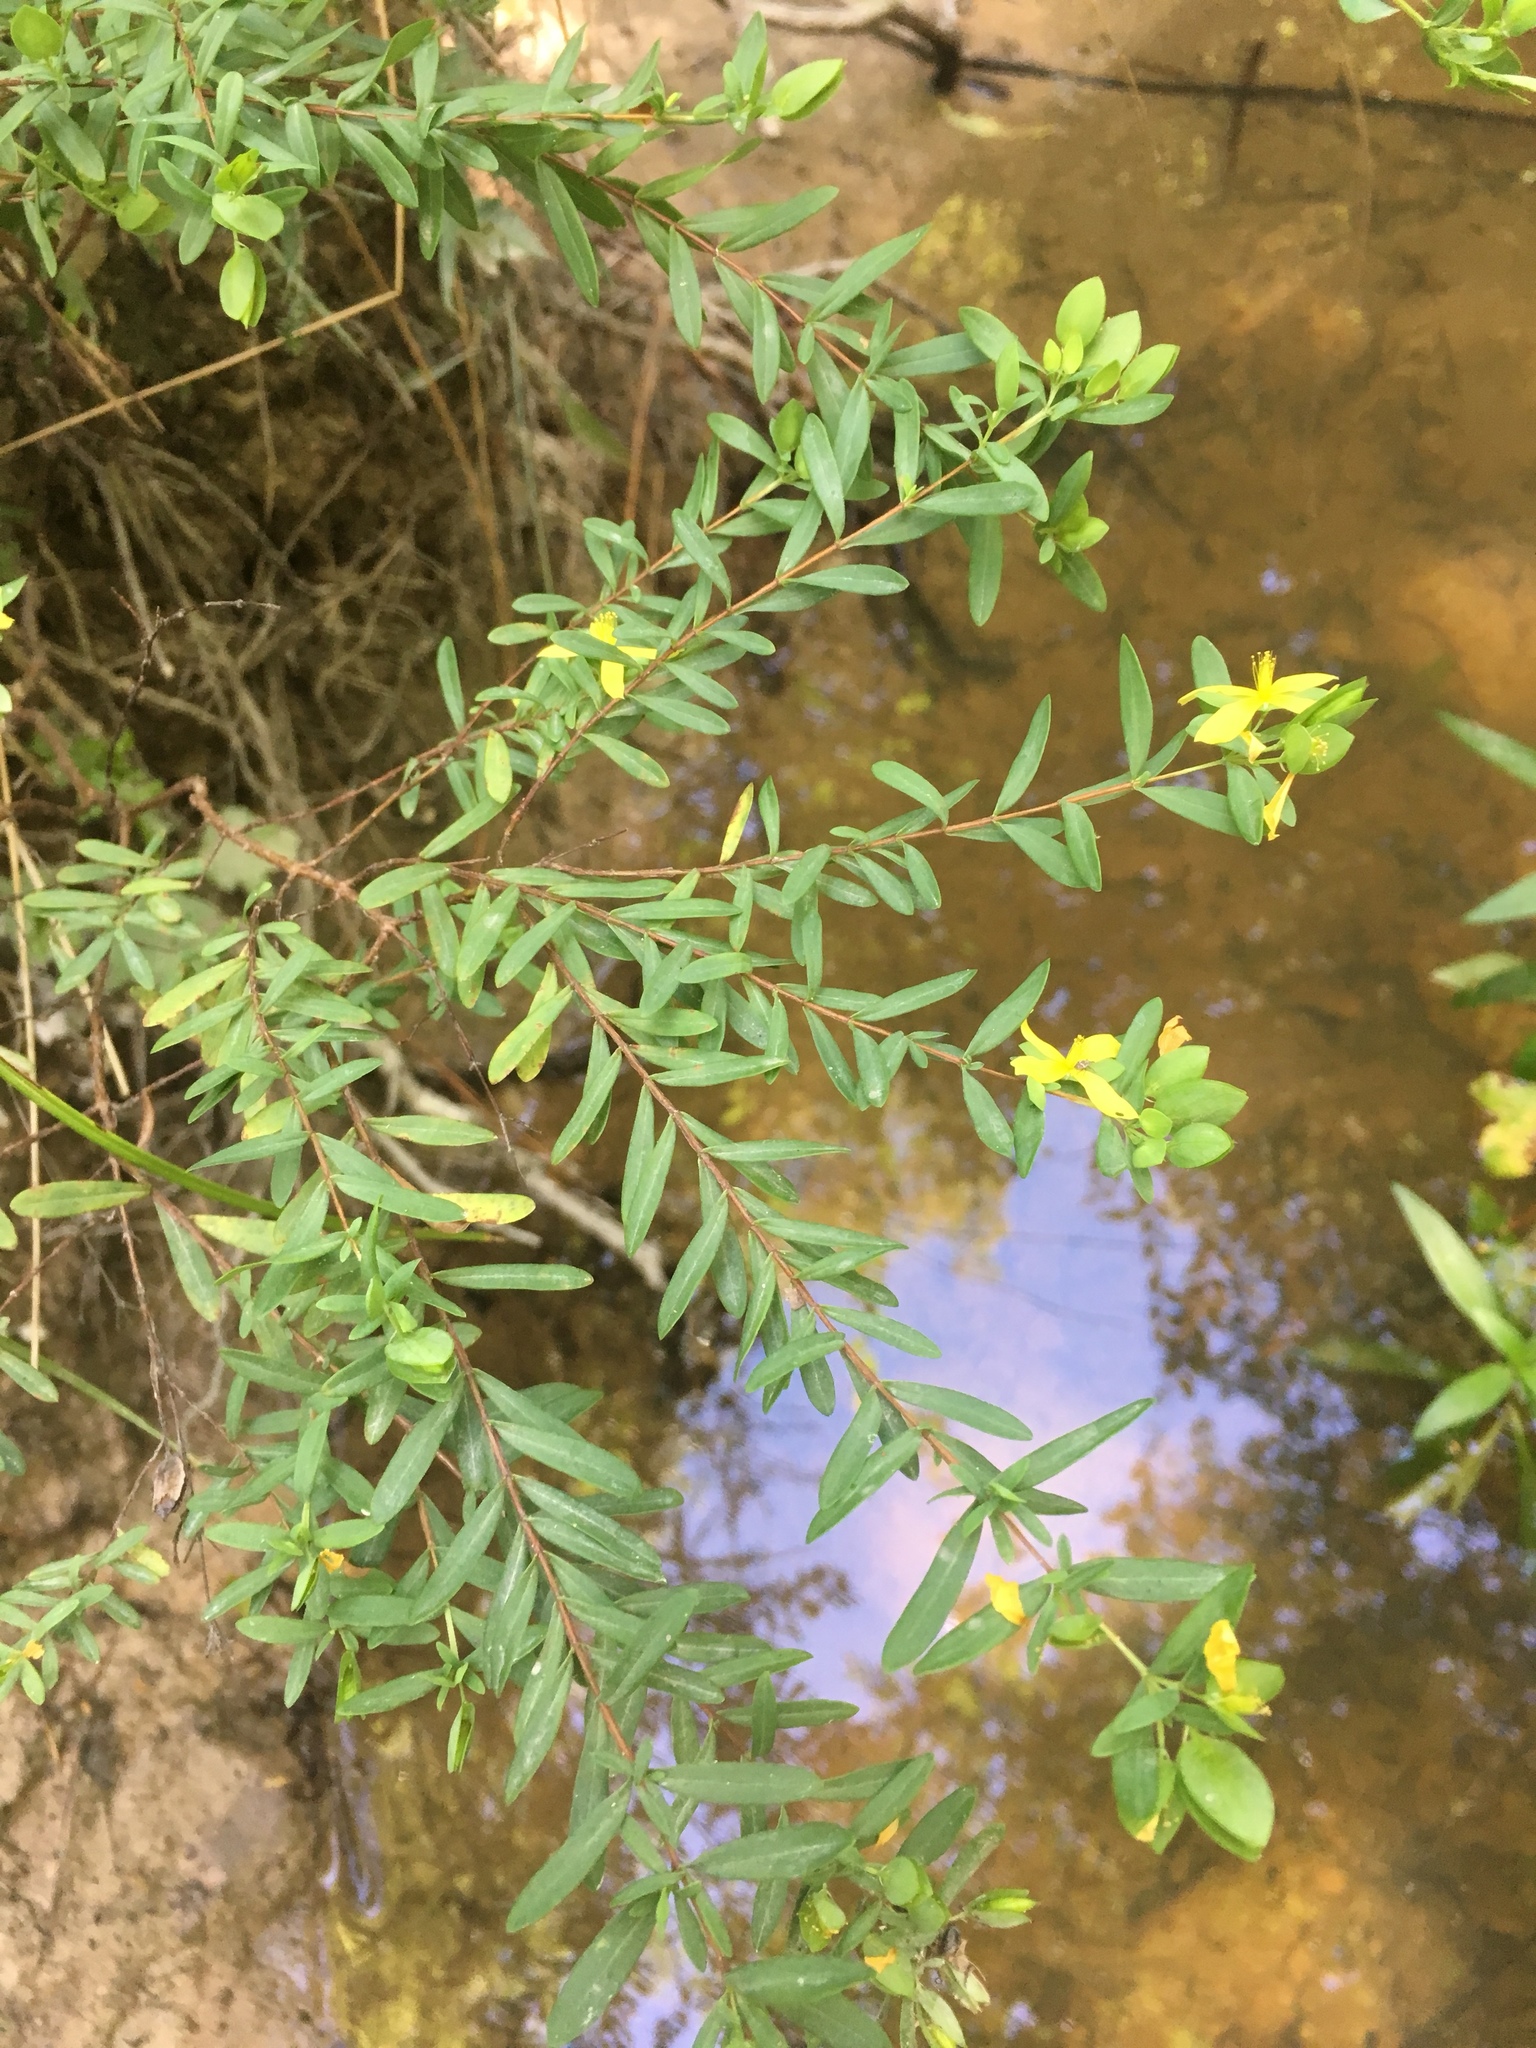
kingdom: Plantae
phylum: Tracheophyta
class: Magnoliopsida
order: Malpighiales
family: Hypericaceae
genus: Hypericum
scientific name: Hypericum hypericoides
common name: St. andrew's cross
